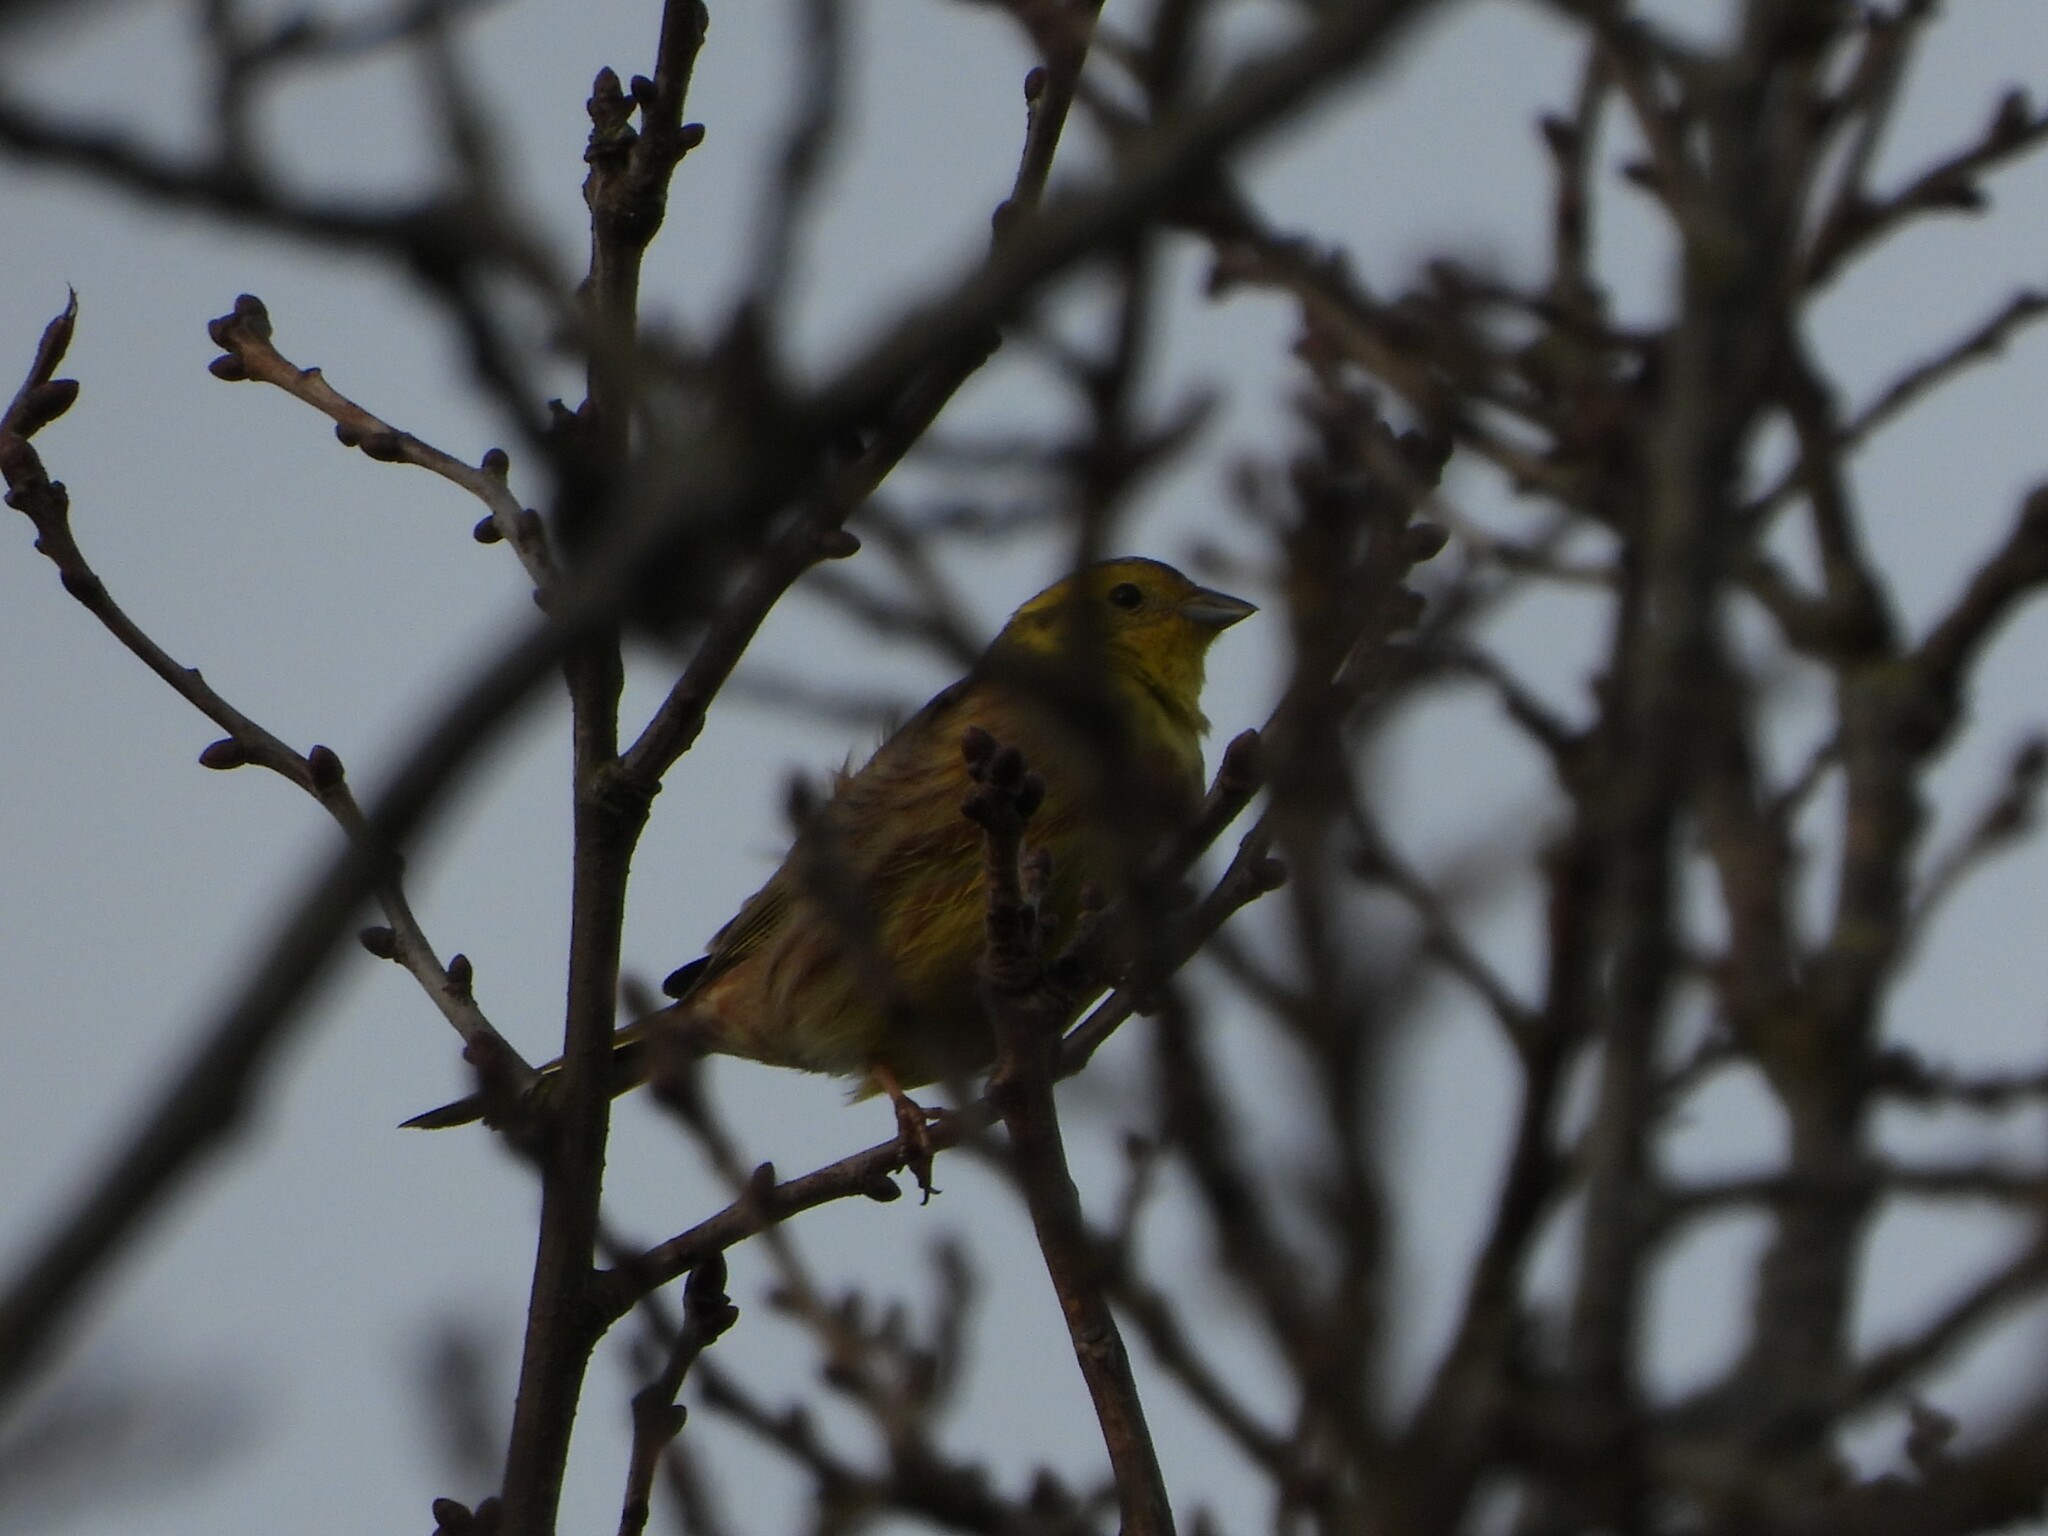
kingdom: Animalia
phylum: Chordata
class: Aves
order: Passeriformes
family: Emberizidae
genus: Emberiza
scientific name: Emberiza citrinella
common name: Yellowhammer
